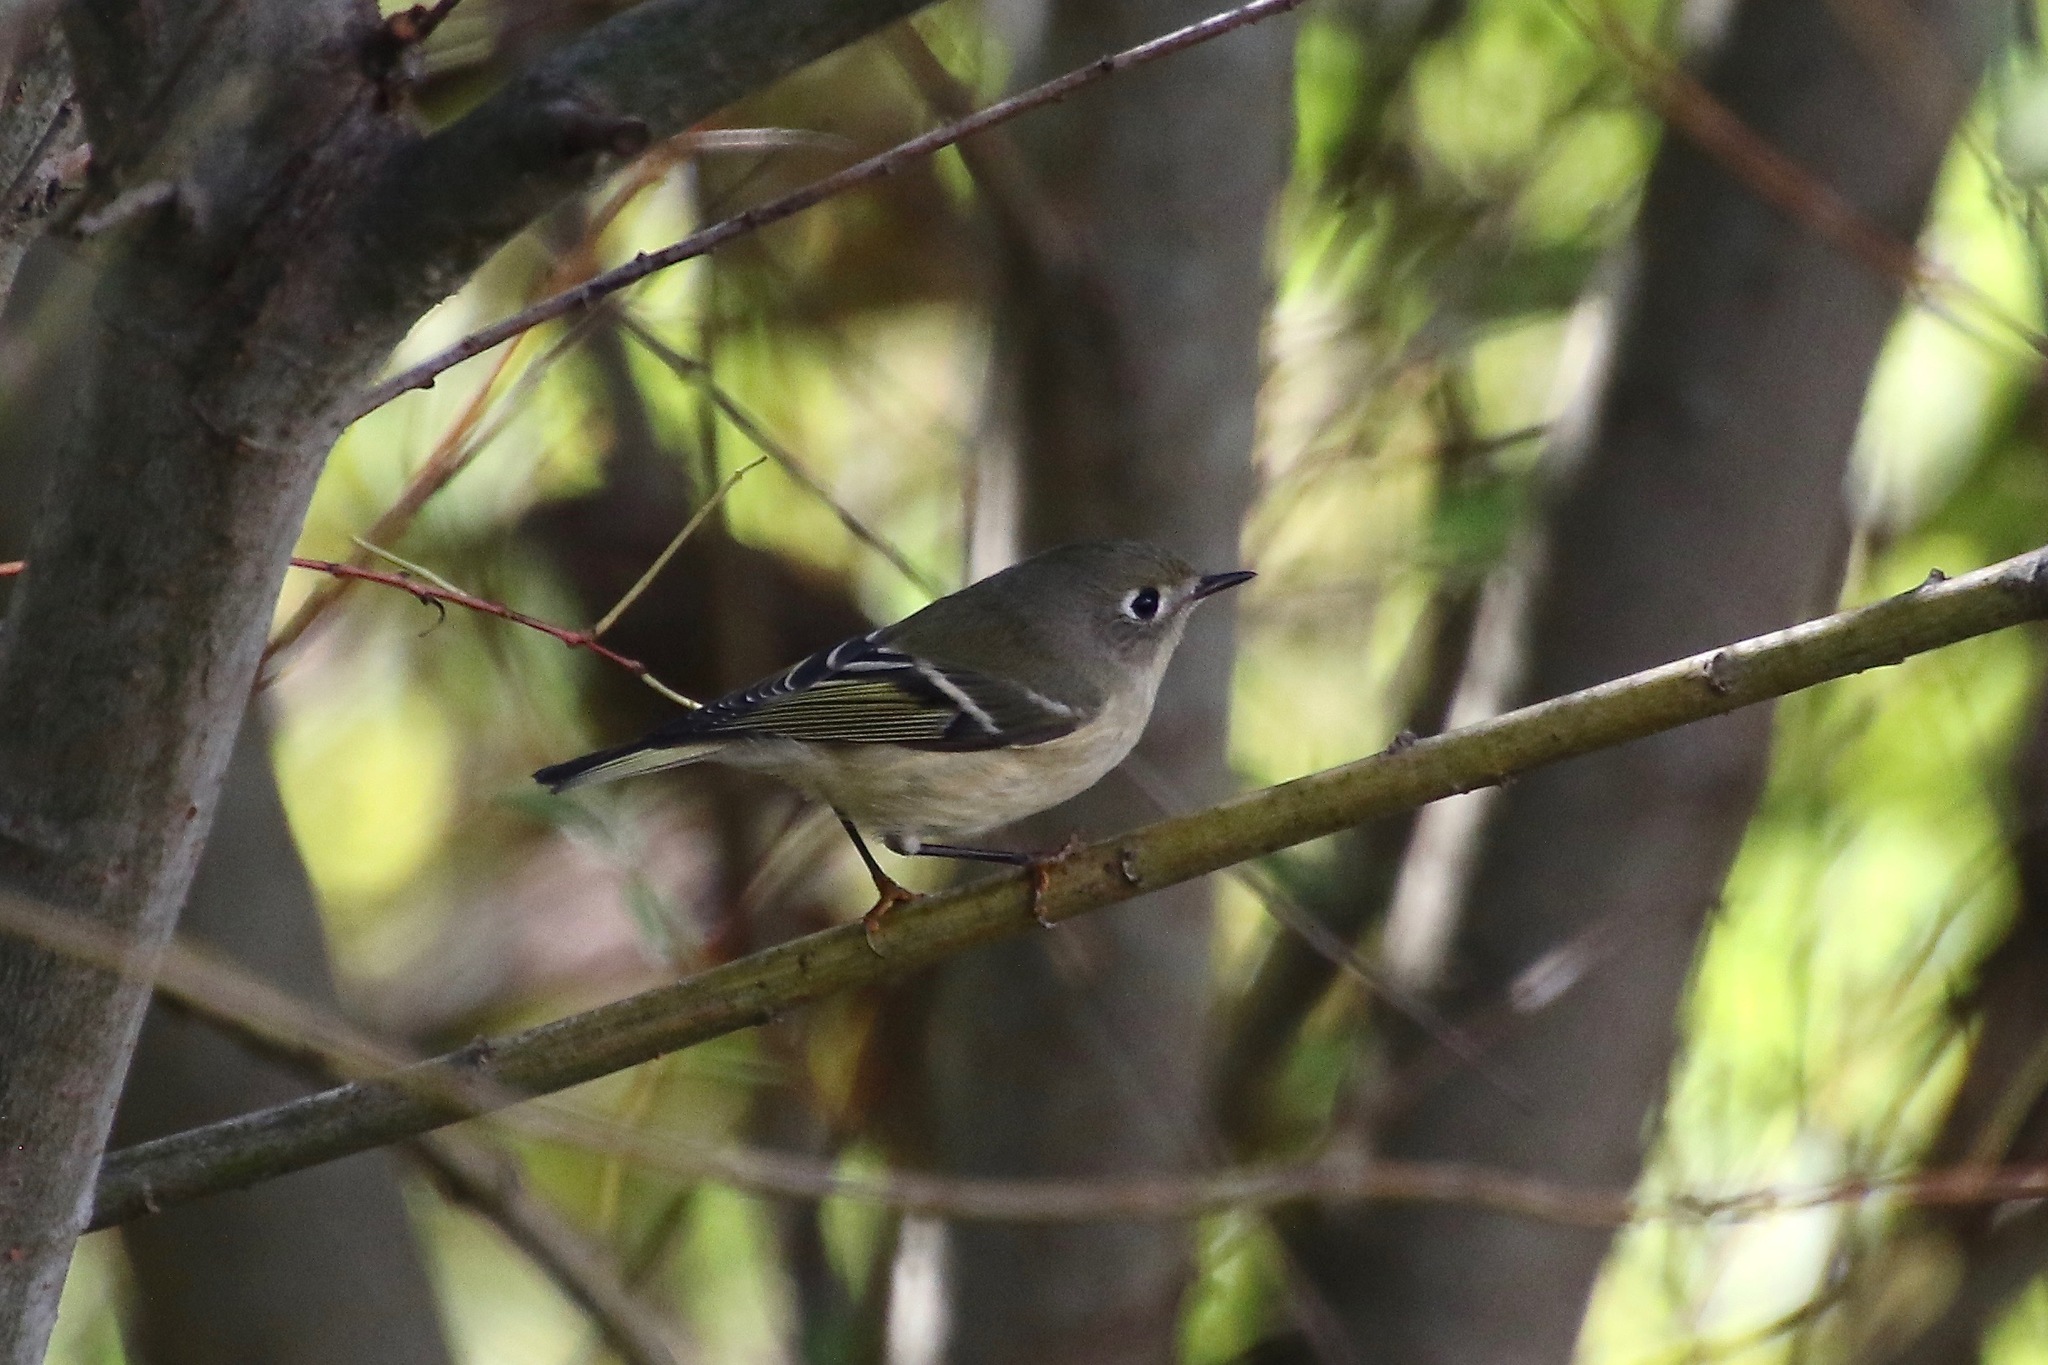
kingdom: Animalia
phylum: Chordata
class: Aves
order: Passeriformes
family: Regulidae
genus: Regulus
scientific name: Regulus calendula
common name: Ruby-crowned kinglet
